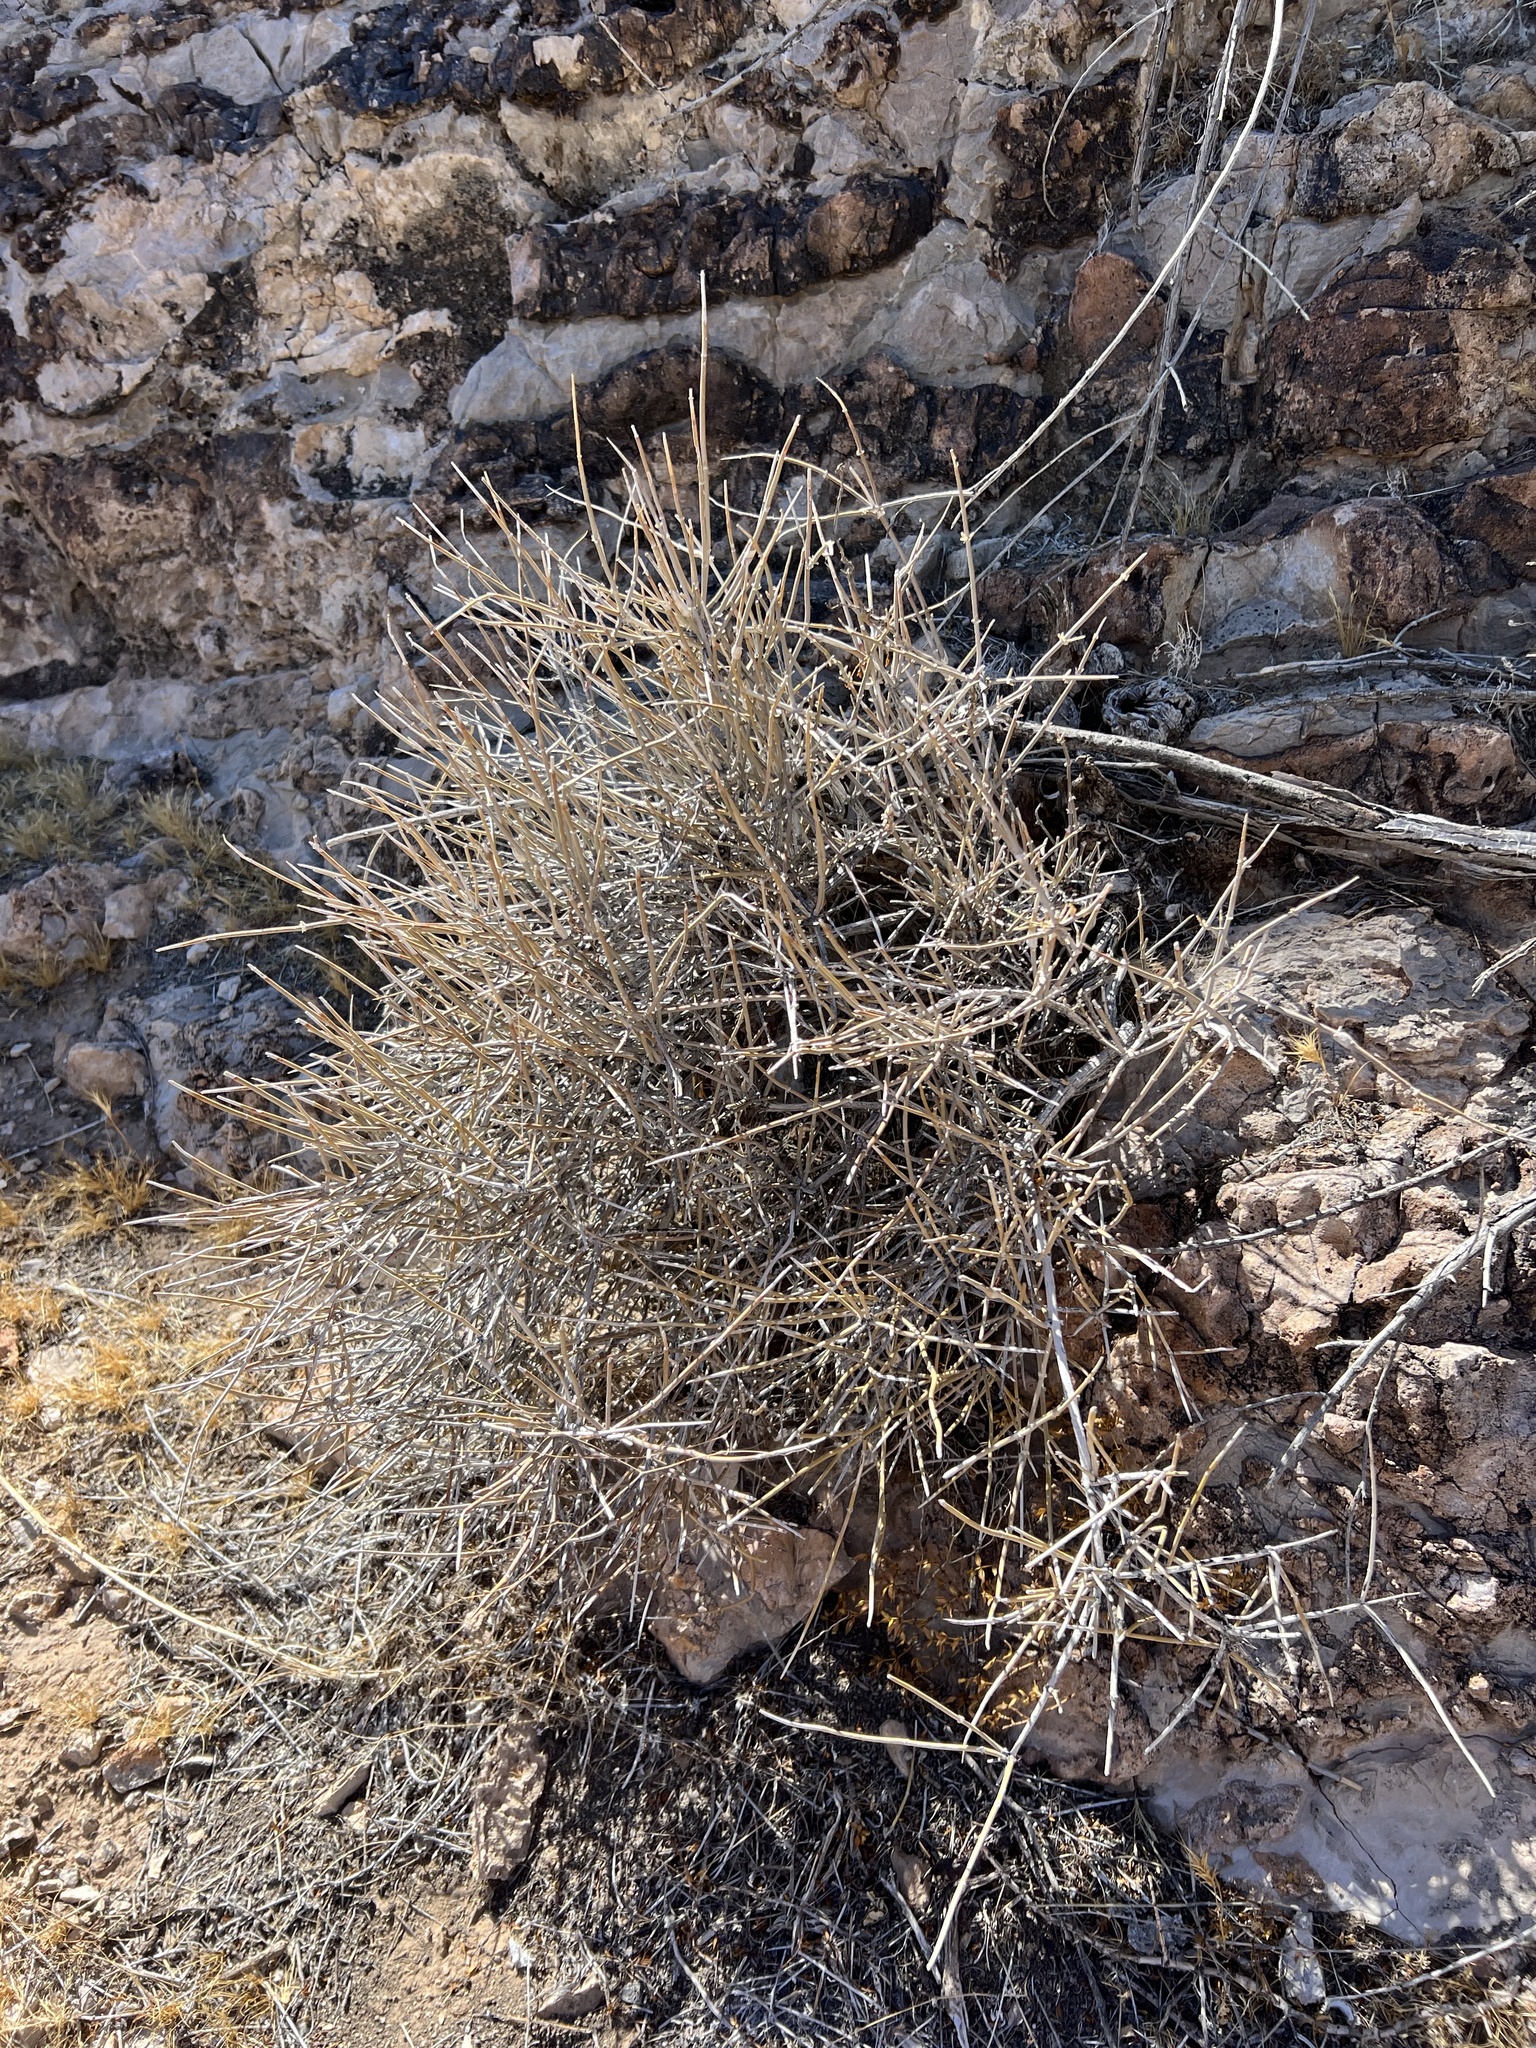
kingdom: Plantae
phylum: Tracheophyta
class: Gnetopsida
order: Ephedrales
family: Ephedraceae
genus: Ephedra
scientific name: Ephedra nevadensis
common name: Gray ephedra
